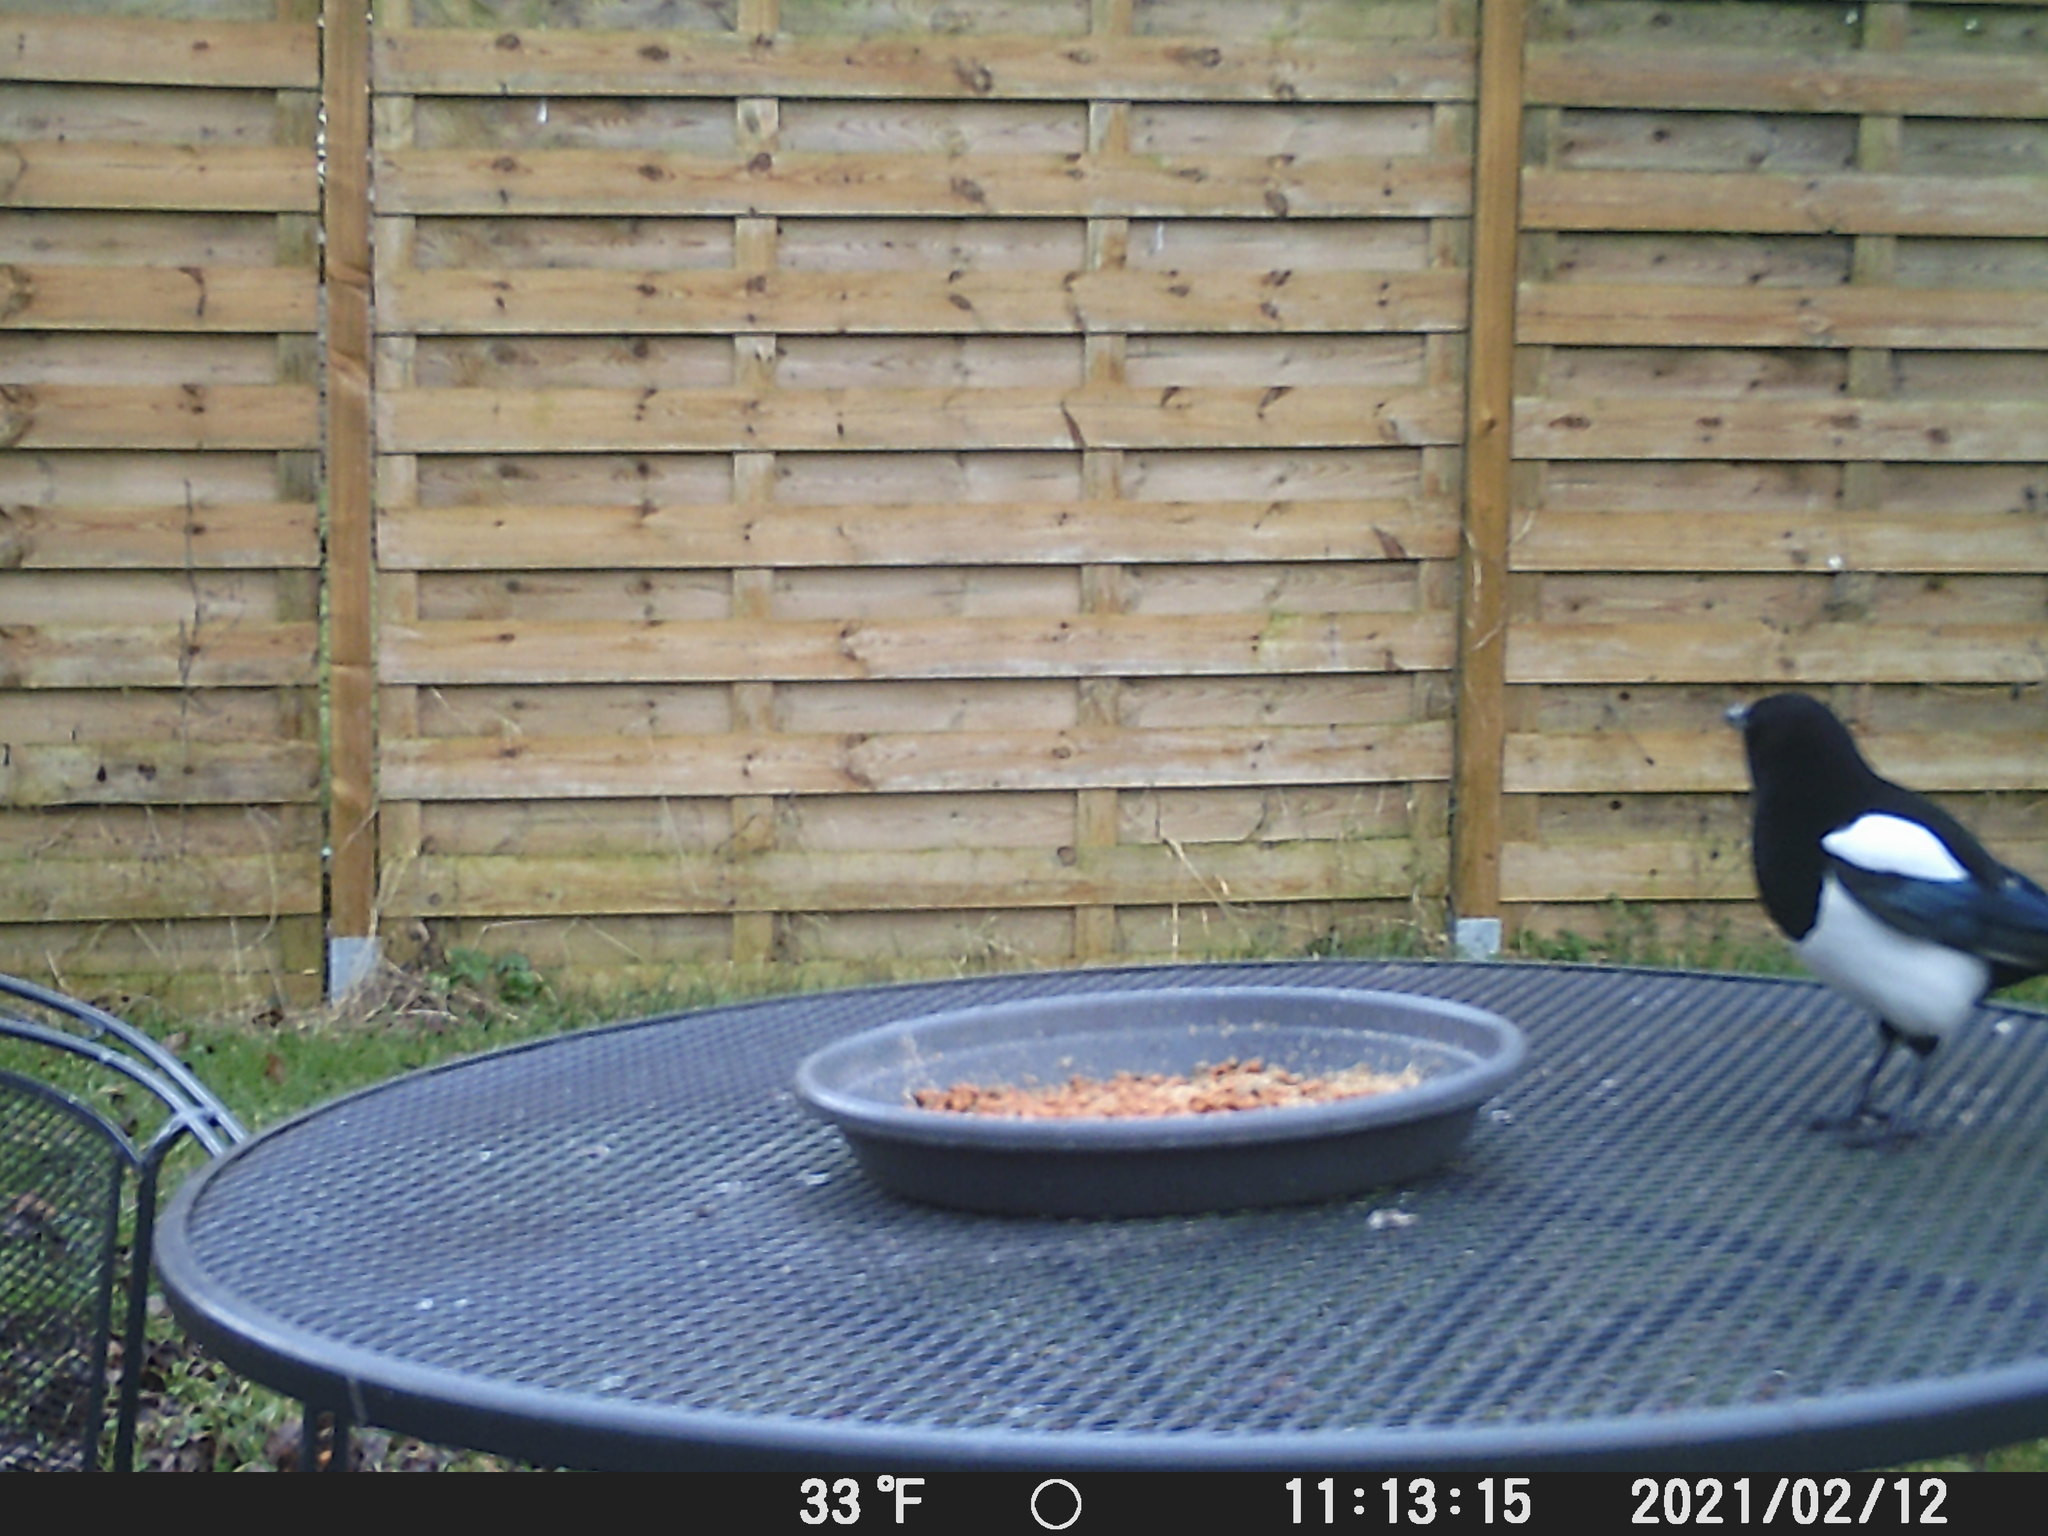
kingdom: Animalia
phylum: Chordata
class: Aves
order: Passeriformes
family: Corvidae
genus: Pica
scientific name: Pica pica
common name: Eurasian magpie
